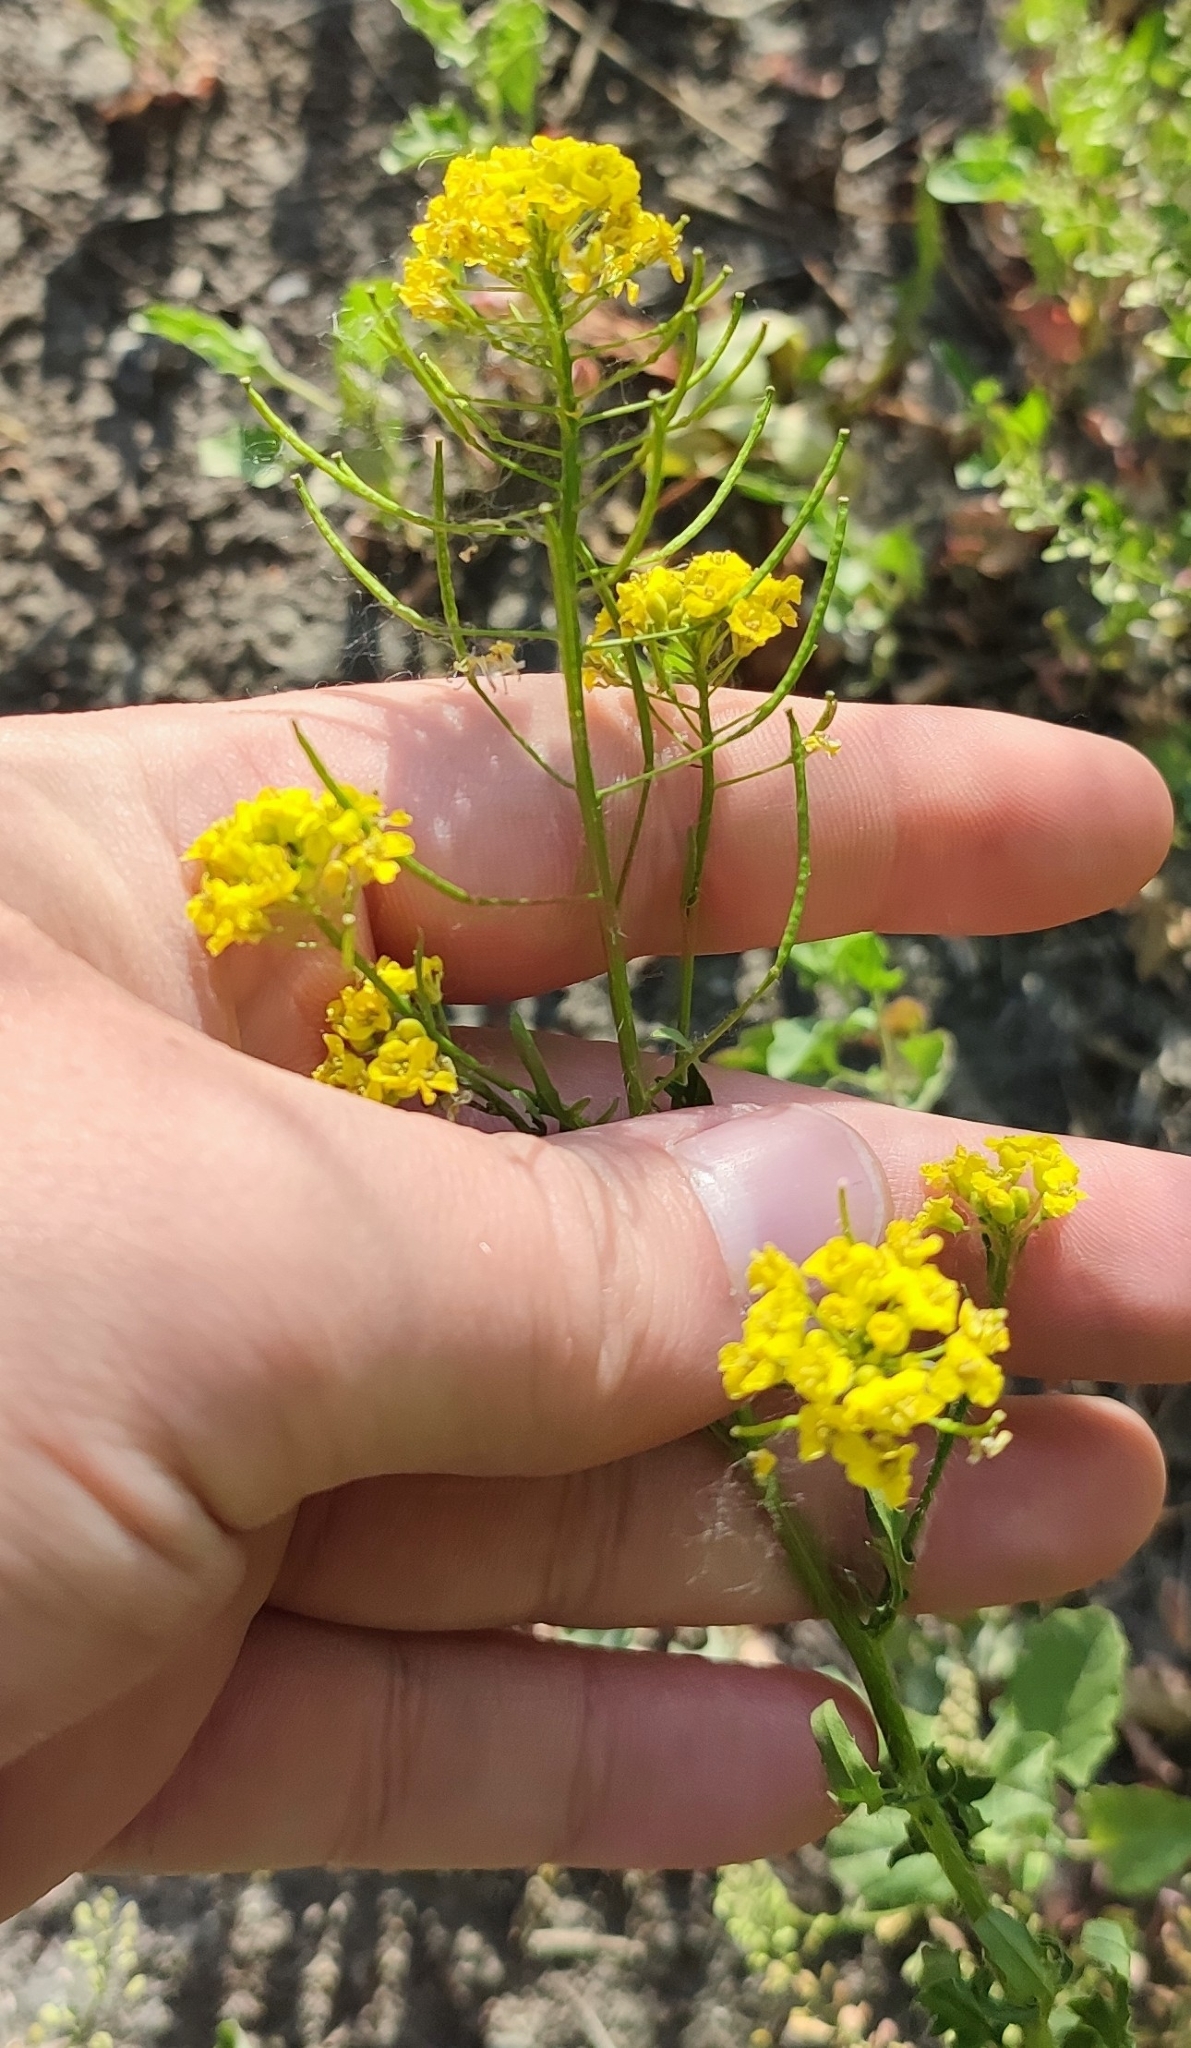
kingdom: Plantae
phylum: Tracheophyta
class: Magnoliopsida
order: Brassicales
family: Brassicaceae
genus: Sisymbrium
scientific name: Sisymbrium loeselii
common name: False london-rocket
